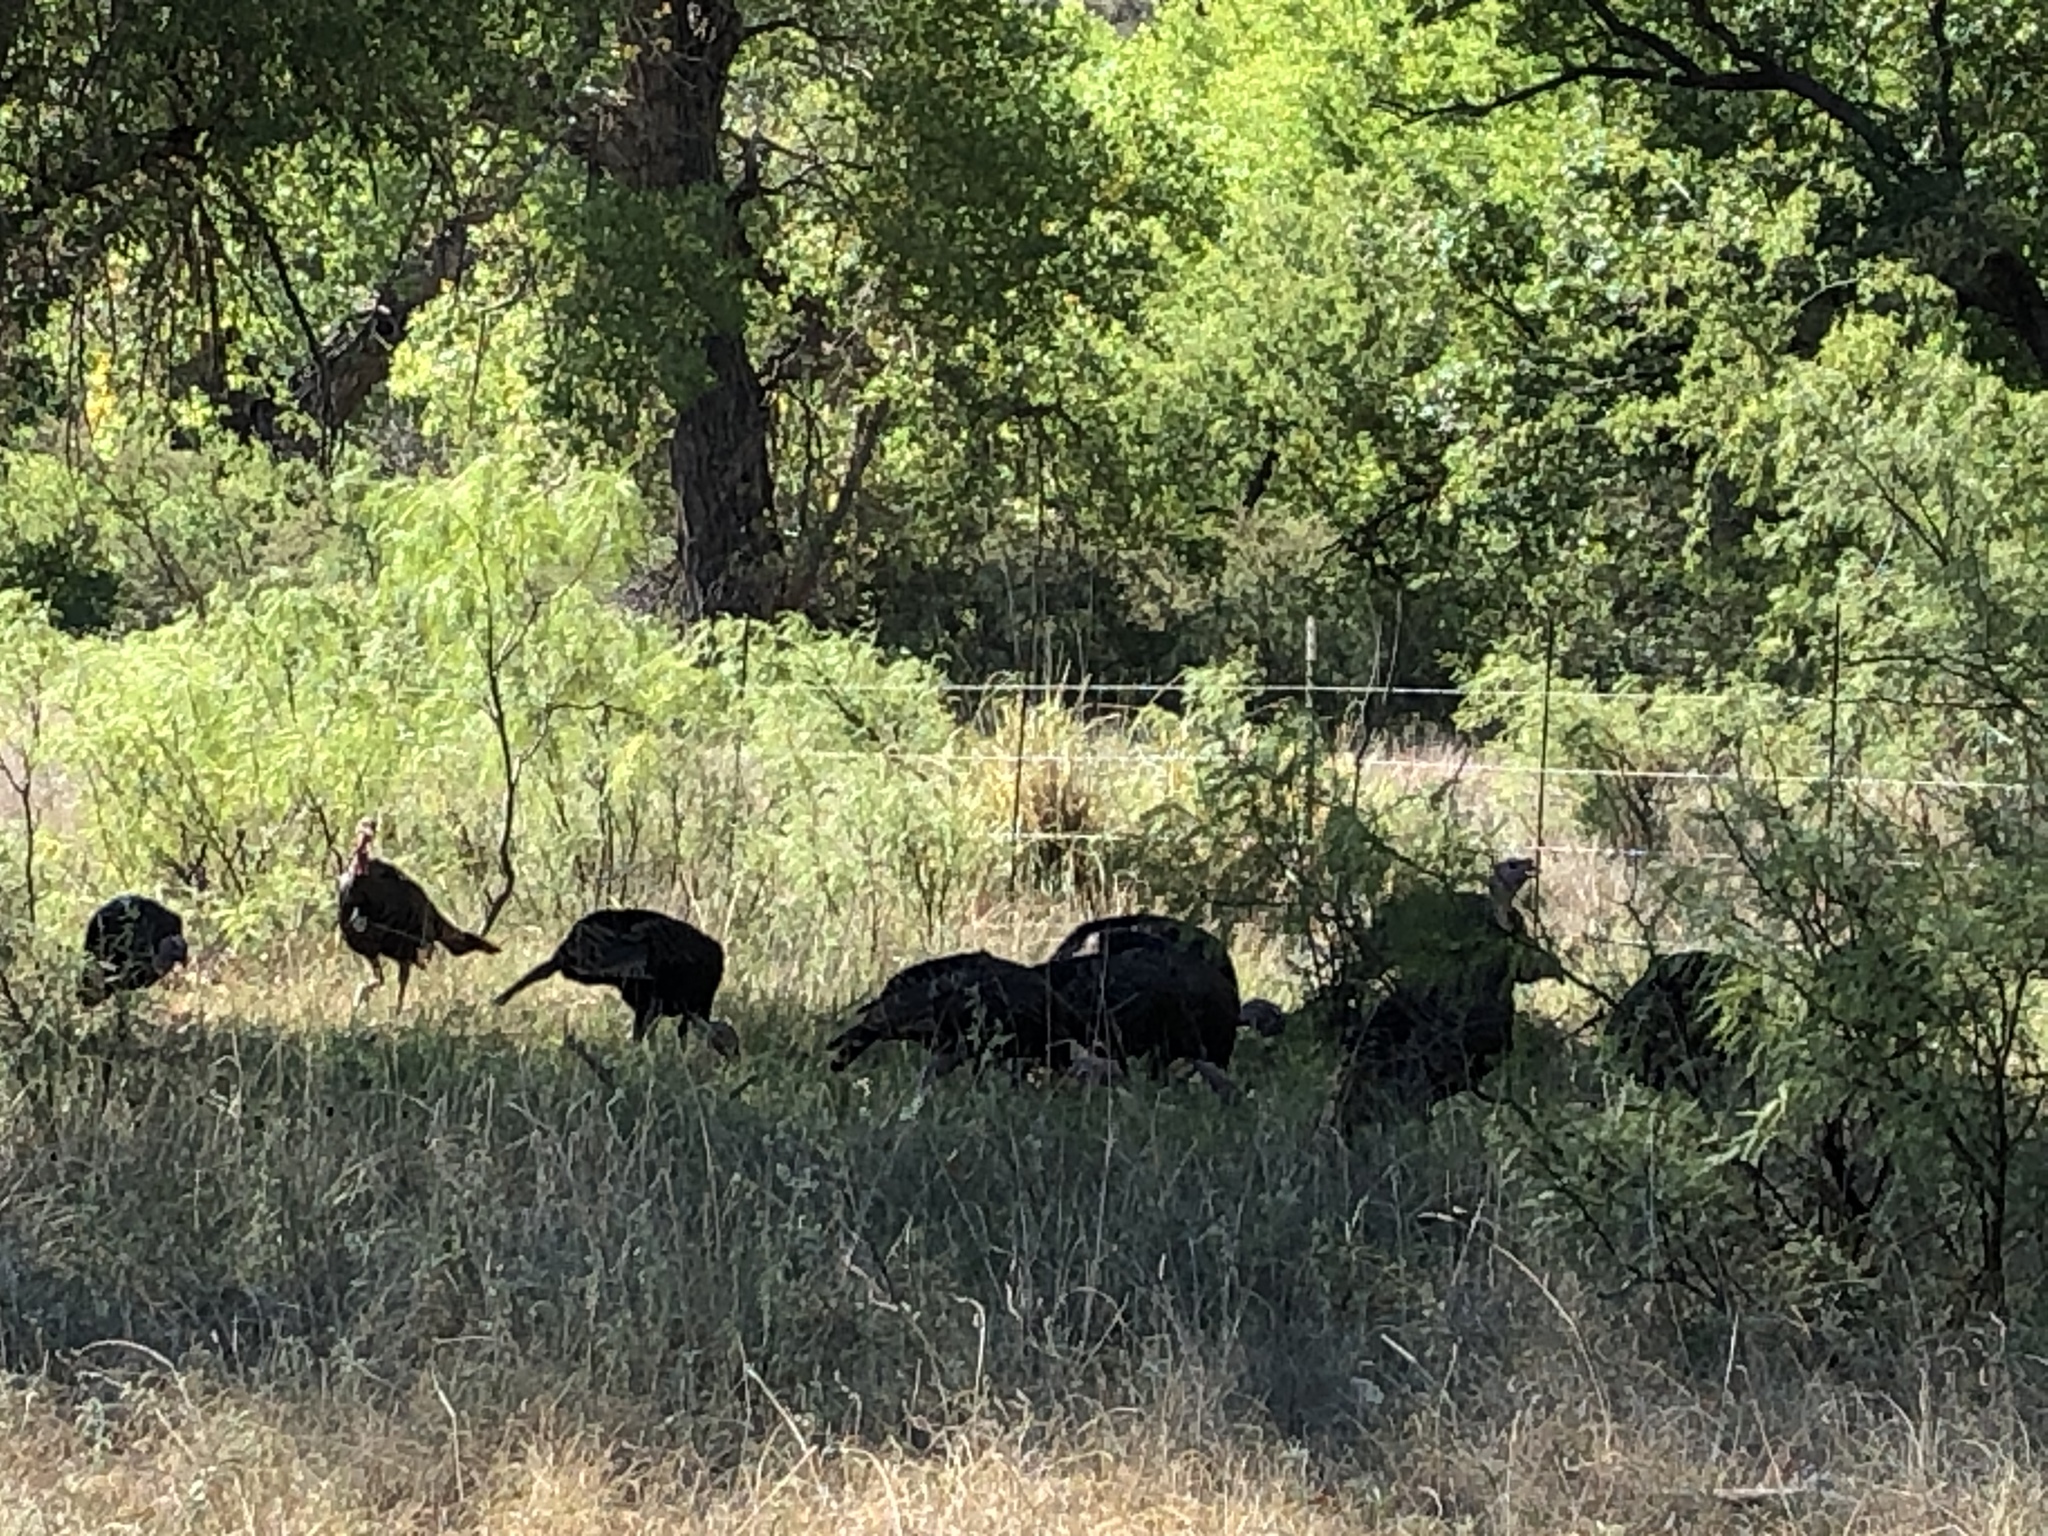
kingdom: Animalia
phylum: Chordata
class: Aves
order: Galliformes
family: Phasianidae
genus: Meleagris
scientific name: Meleagris gallopavo
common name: Wild turkey
